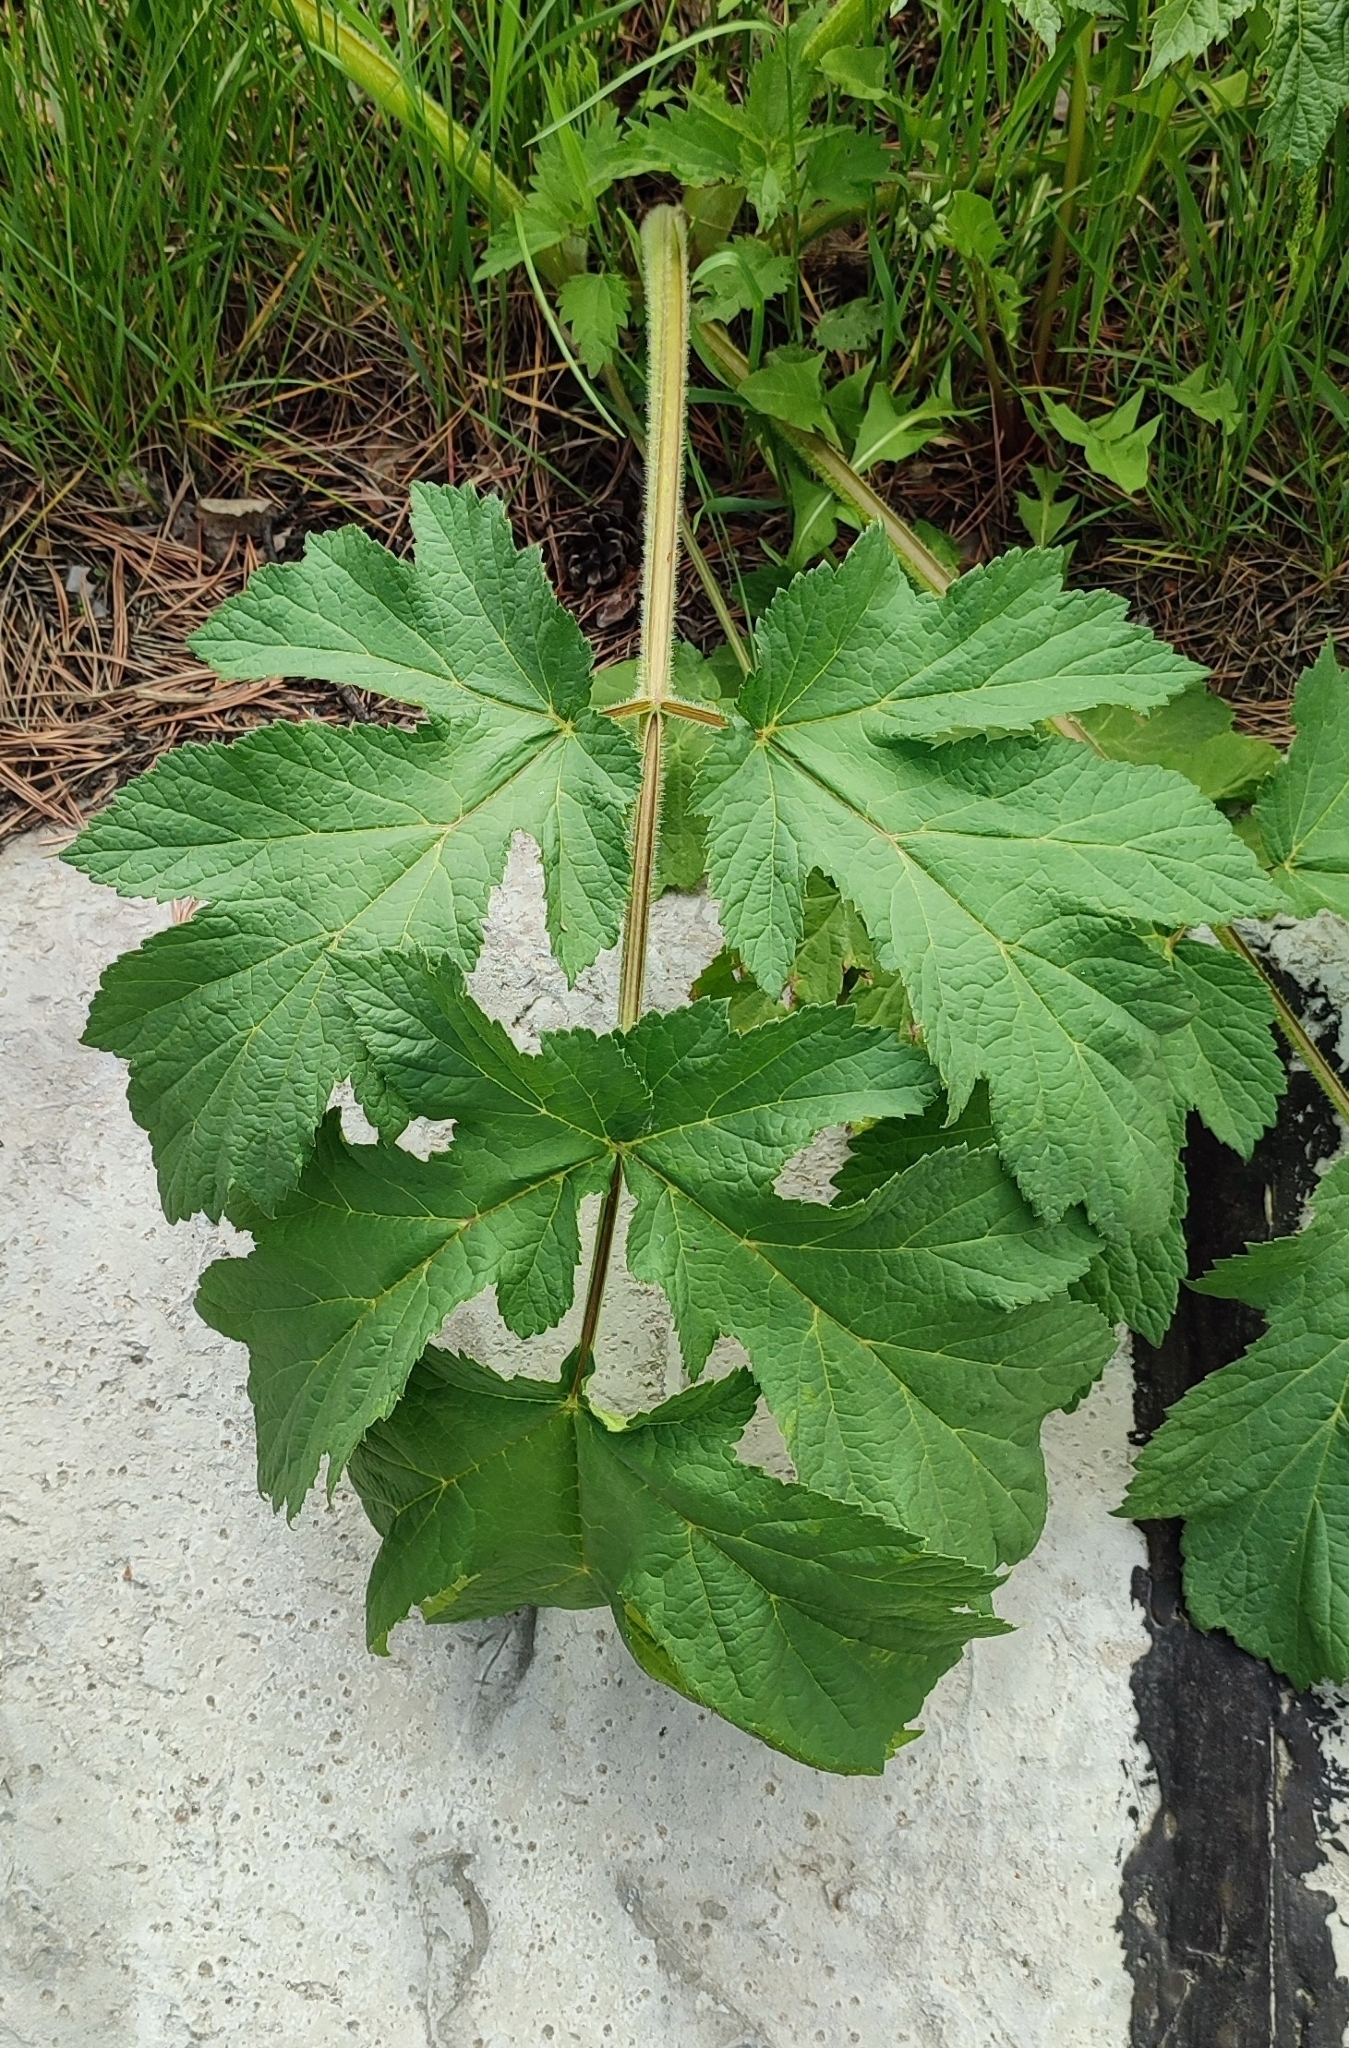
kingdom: Plantae
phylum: Tracheophyta
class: Magnoliopsida
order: Apiales
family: Apiaceae
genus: Heracleum
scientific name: Heracleum sphondylium
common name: Hogweed
